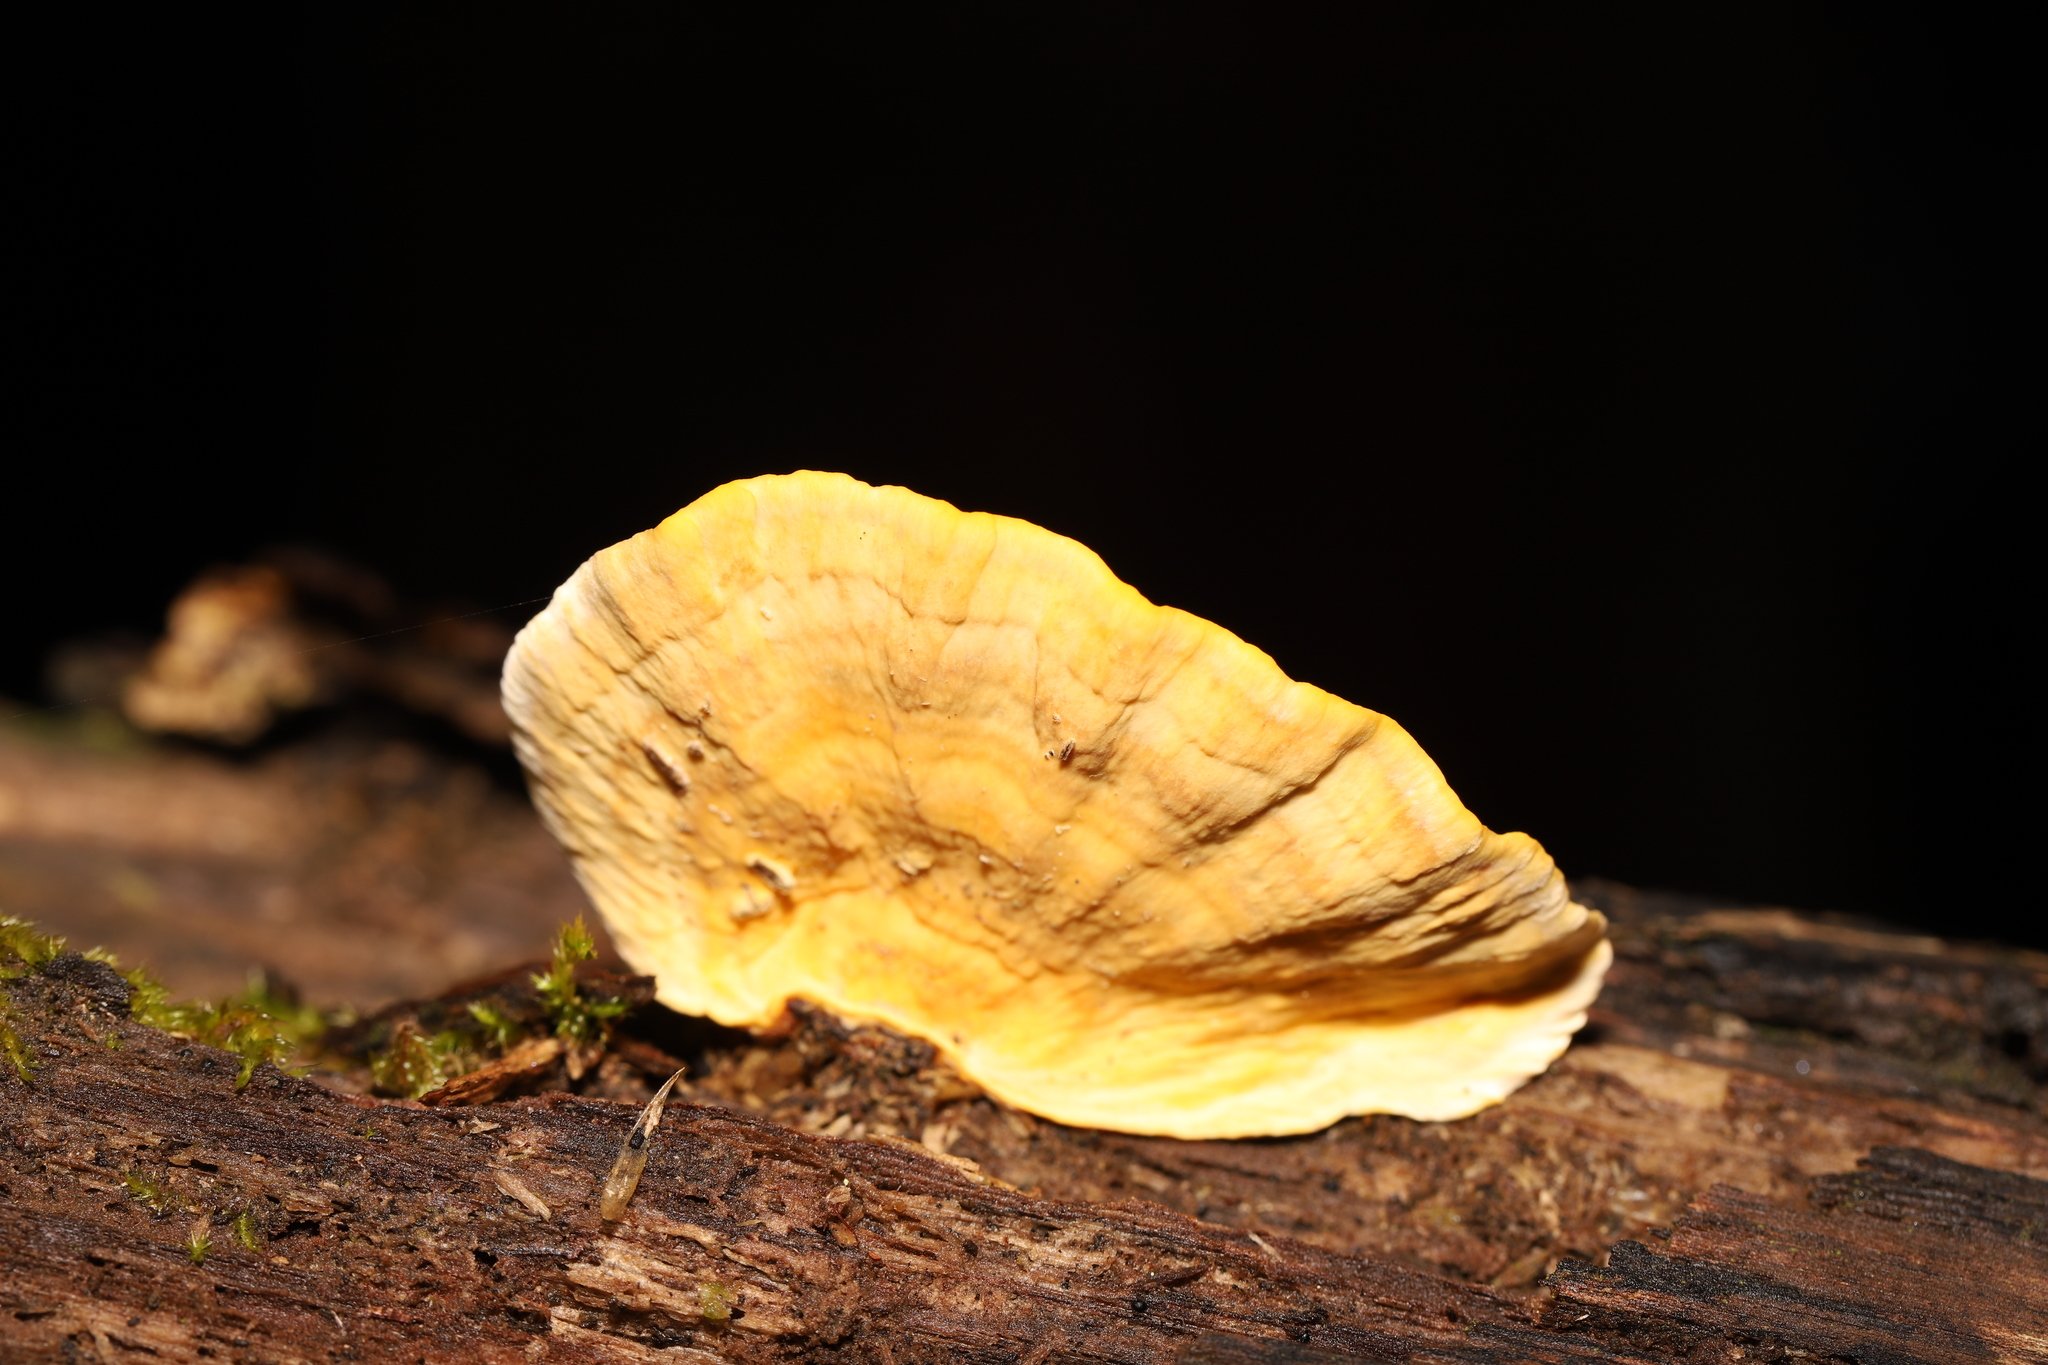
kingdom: Fungi
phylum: Basidiomycota
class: Agaricomycetes
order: Russulales
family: Stereaceae
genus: Stereum
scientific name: Stereum versicolor
